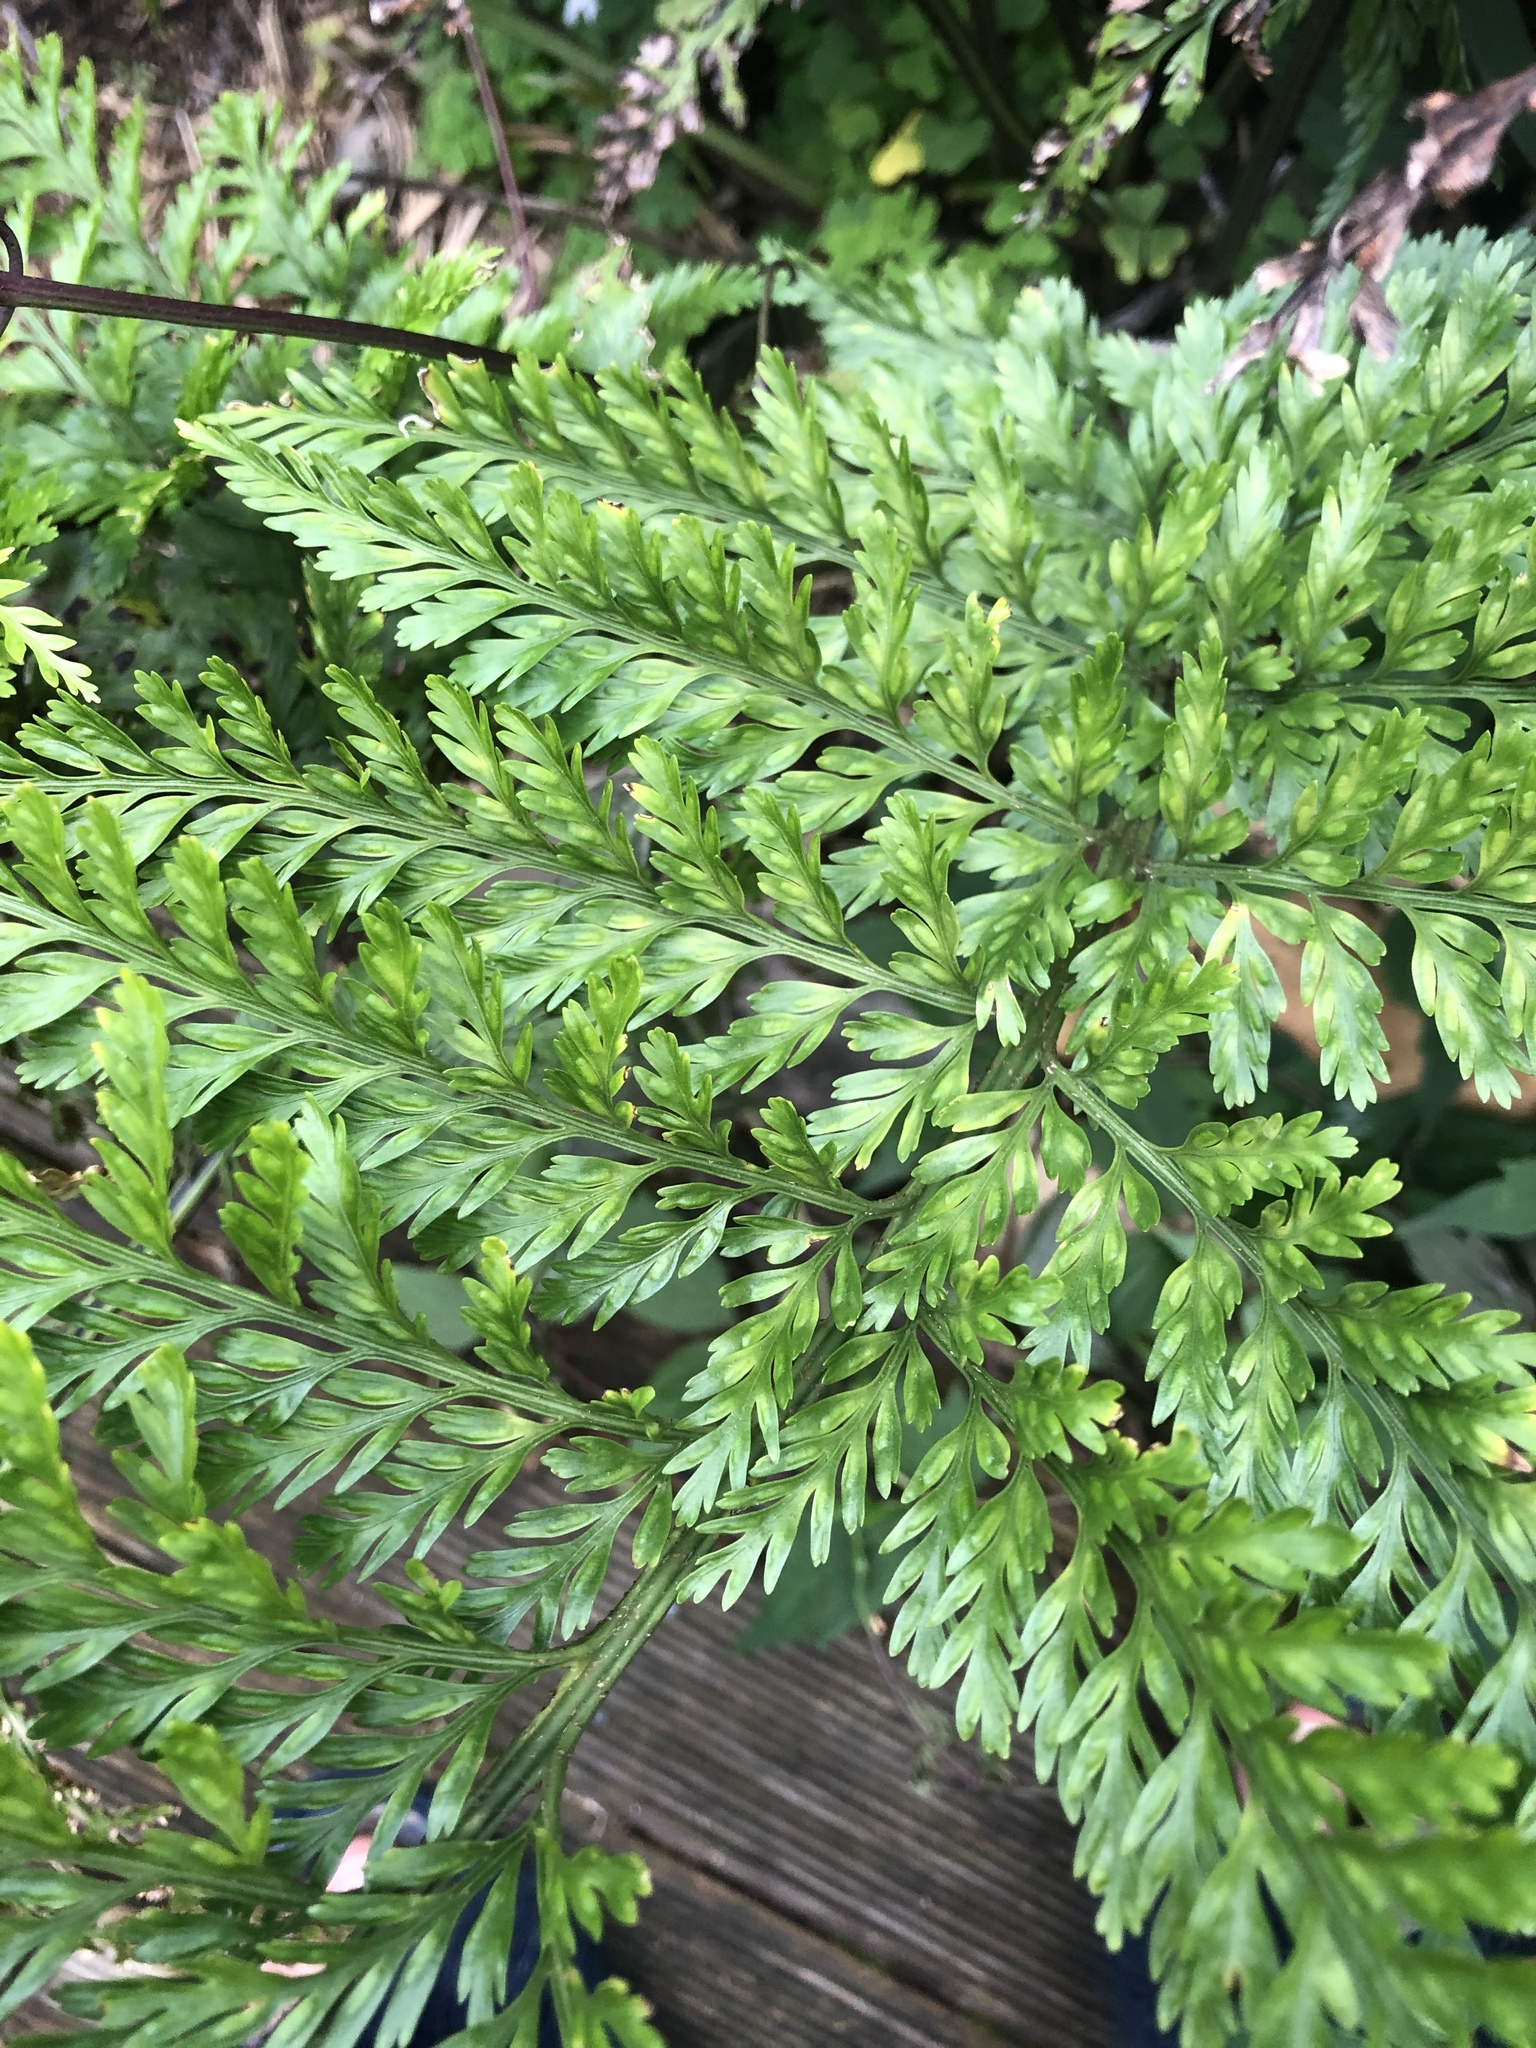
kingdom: Plantae
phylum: Tracheophyta
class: Polypodiopsida
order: Polypodiales
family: Aspleniaceae
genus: Asplenium
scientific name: Asplenium
